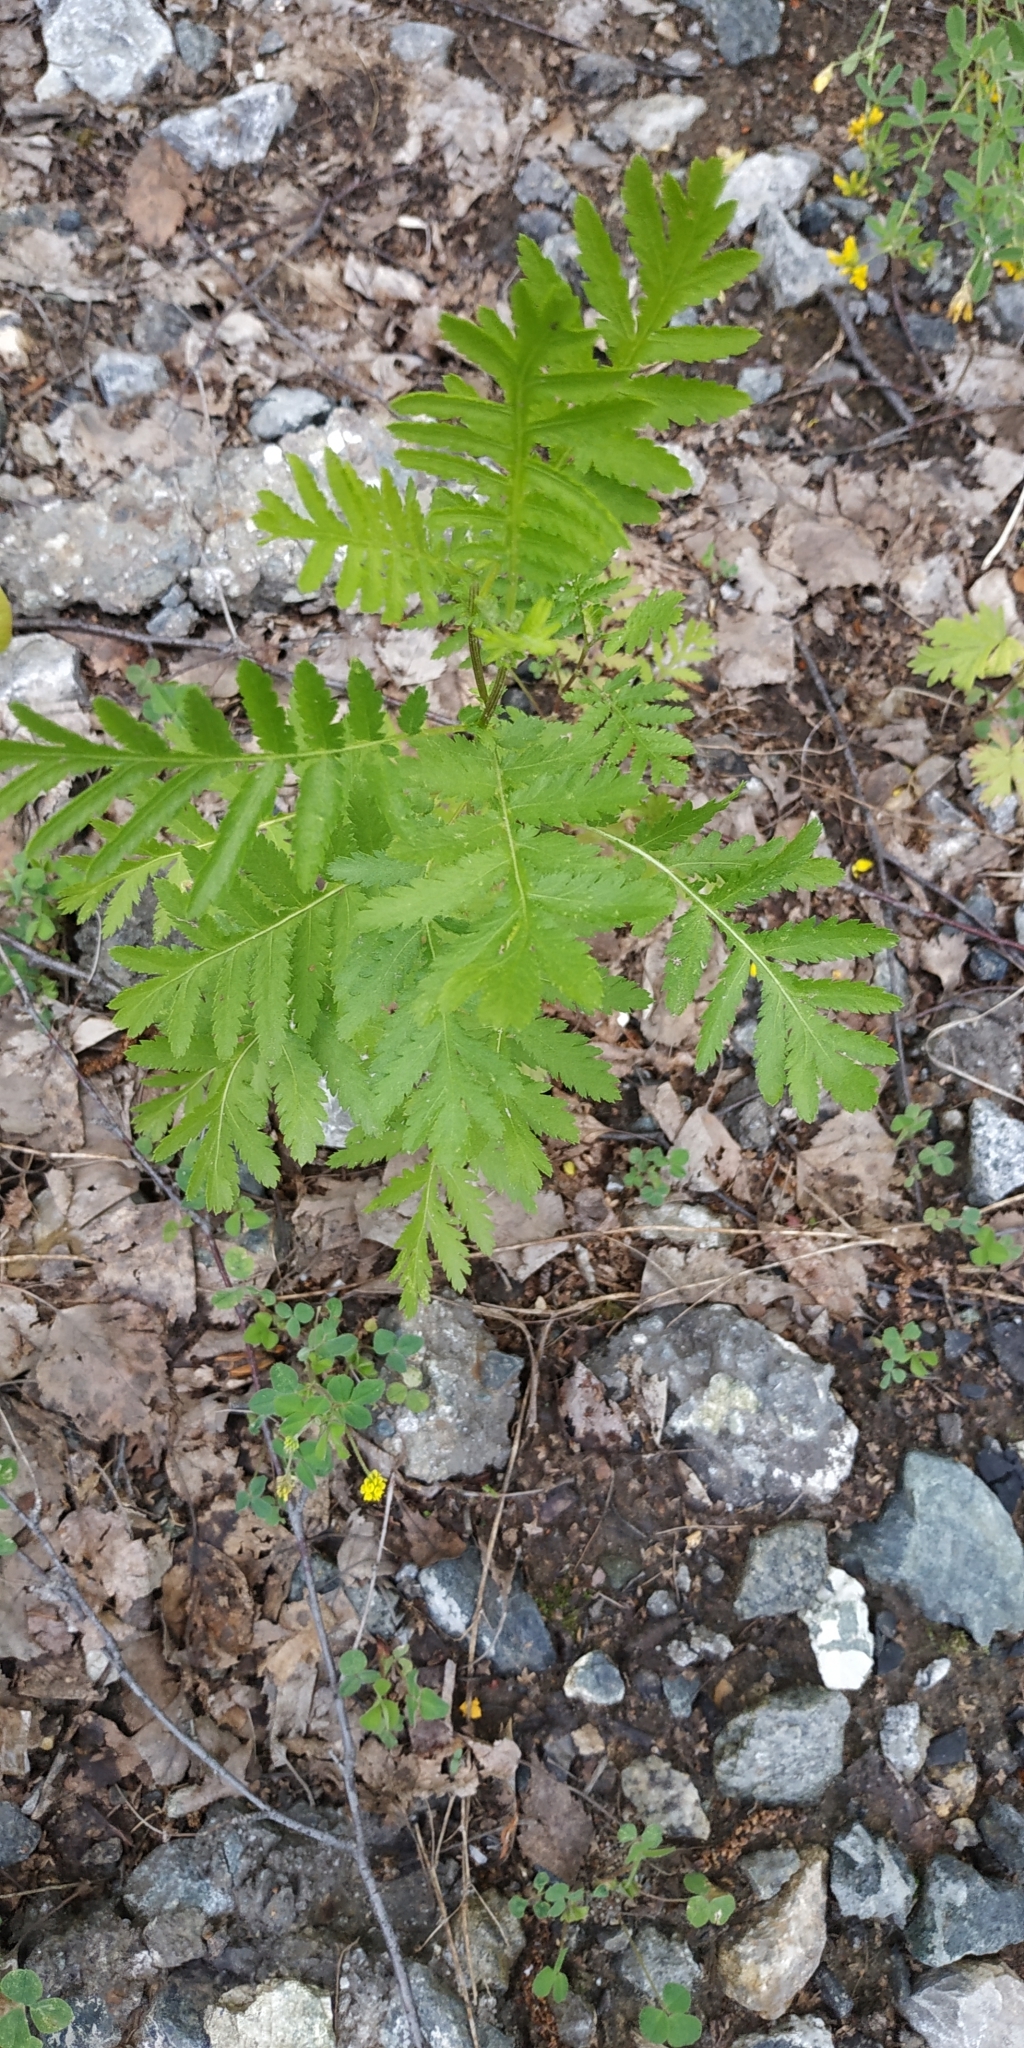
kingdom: Plantae
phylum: Tracheophyta
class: Magnoliopsida
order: Asterales
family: Asteraceae
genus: Tanacetum
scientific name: Tanacetum vulgare
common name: Common tansy
